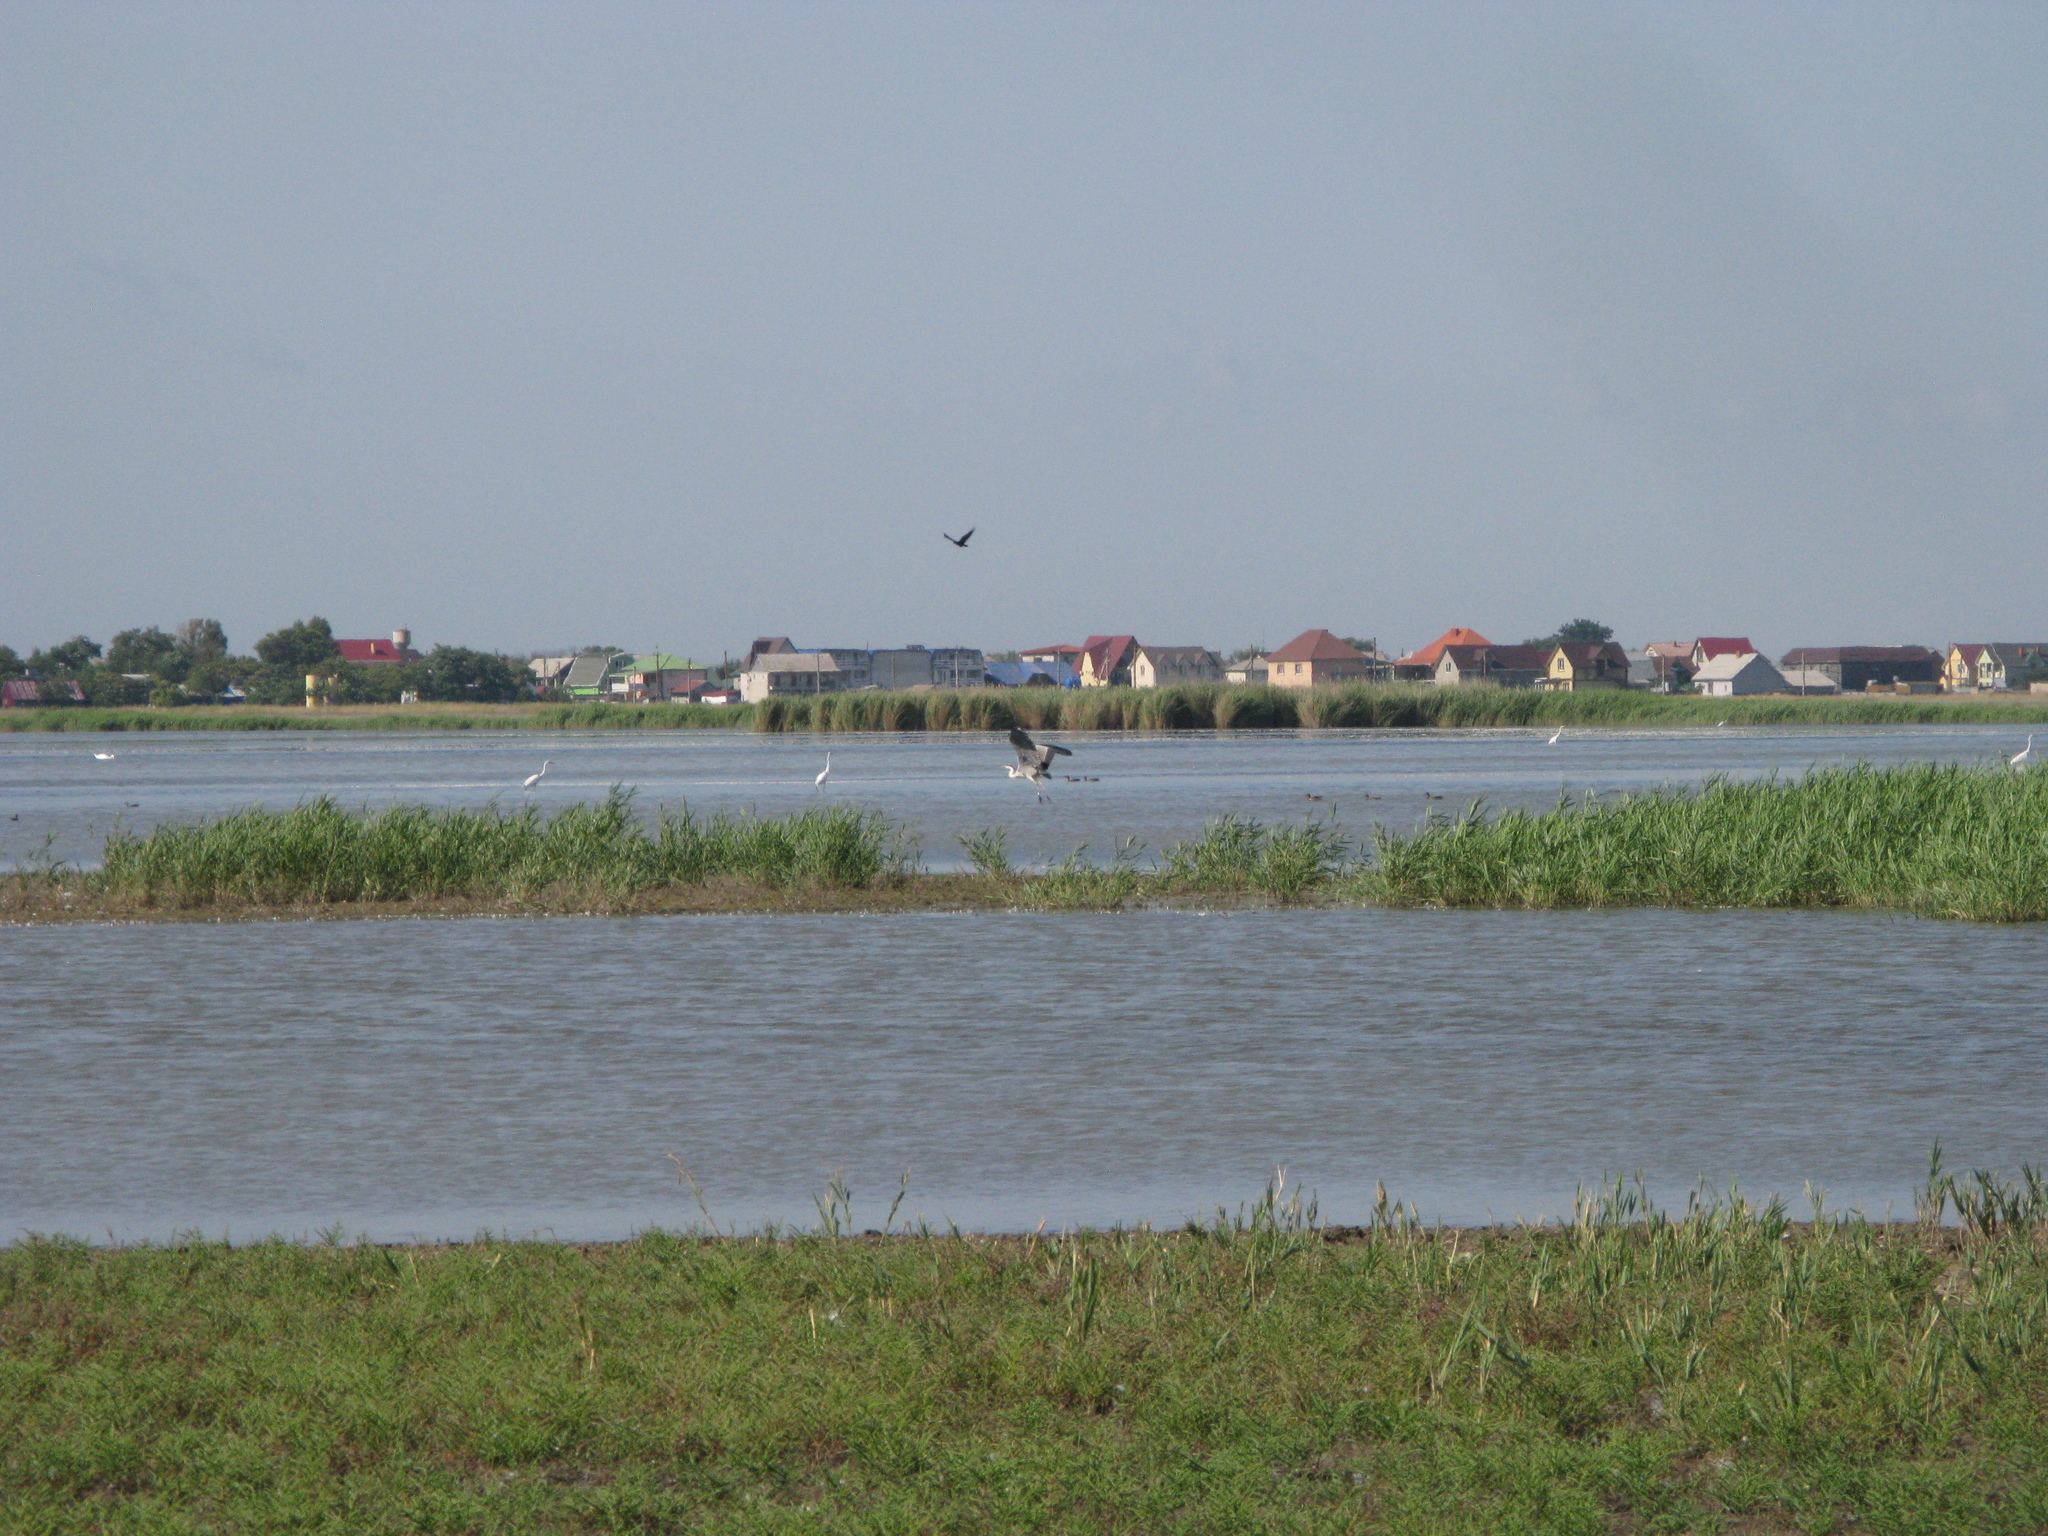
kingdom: Animalia
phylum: Chordata
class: Aves
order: Pelecaniformes
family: Ardeidae
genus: Ardea
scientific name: Ardea cinerea
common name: Grey heron
